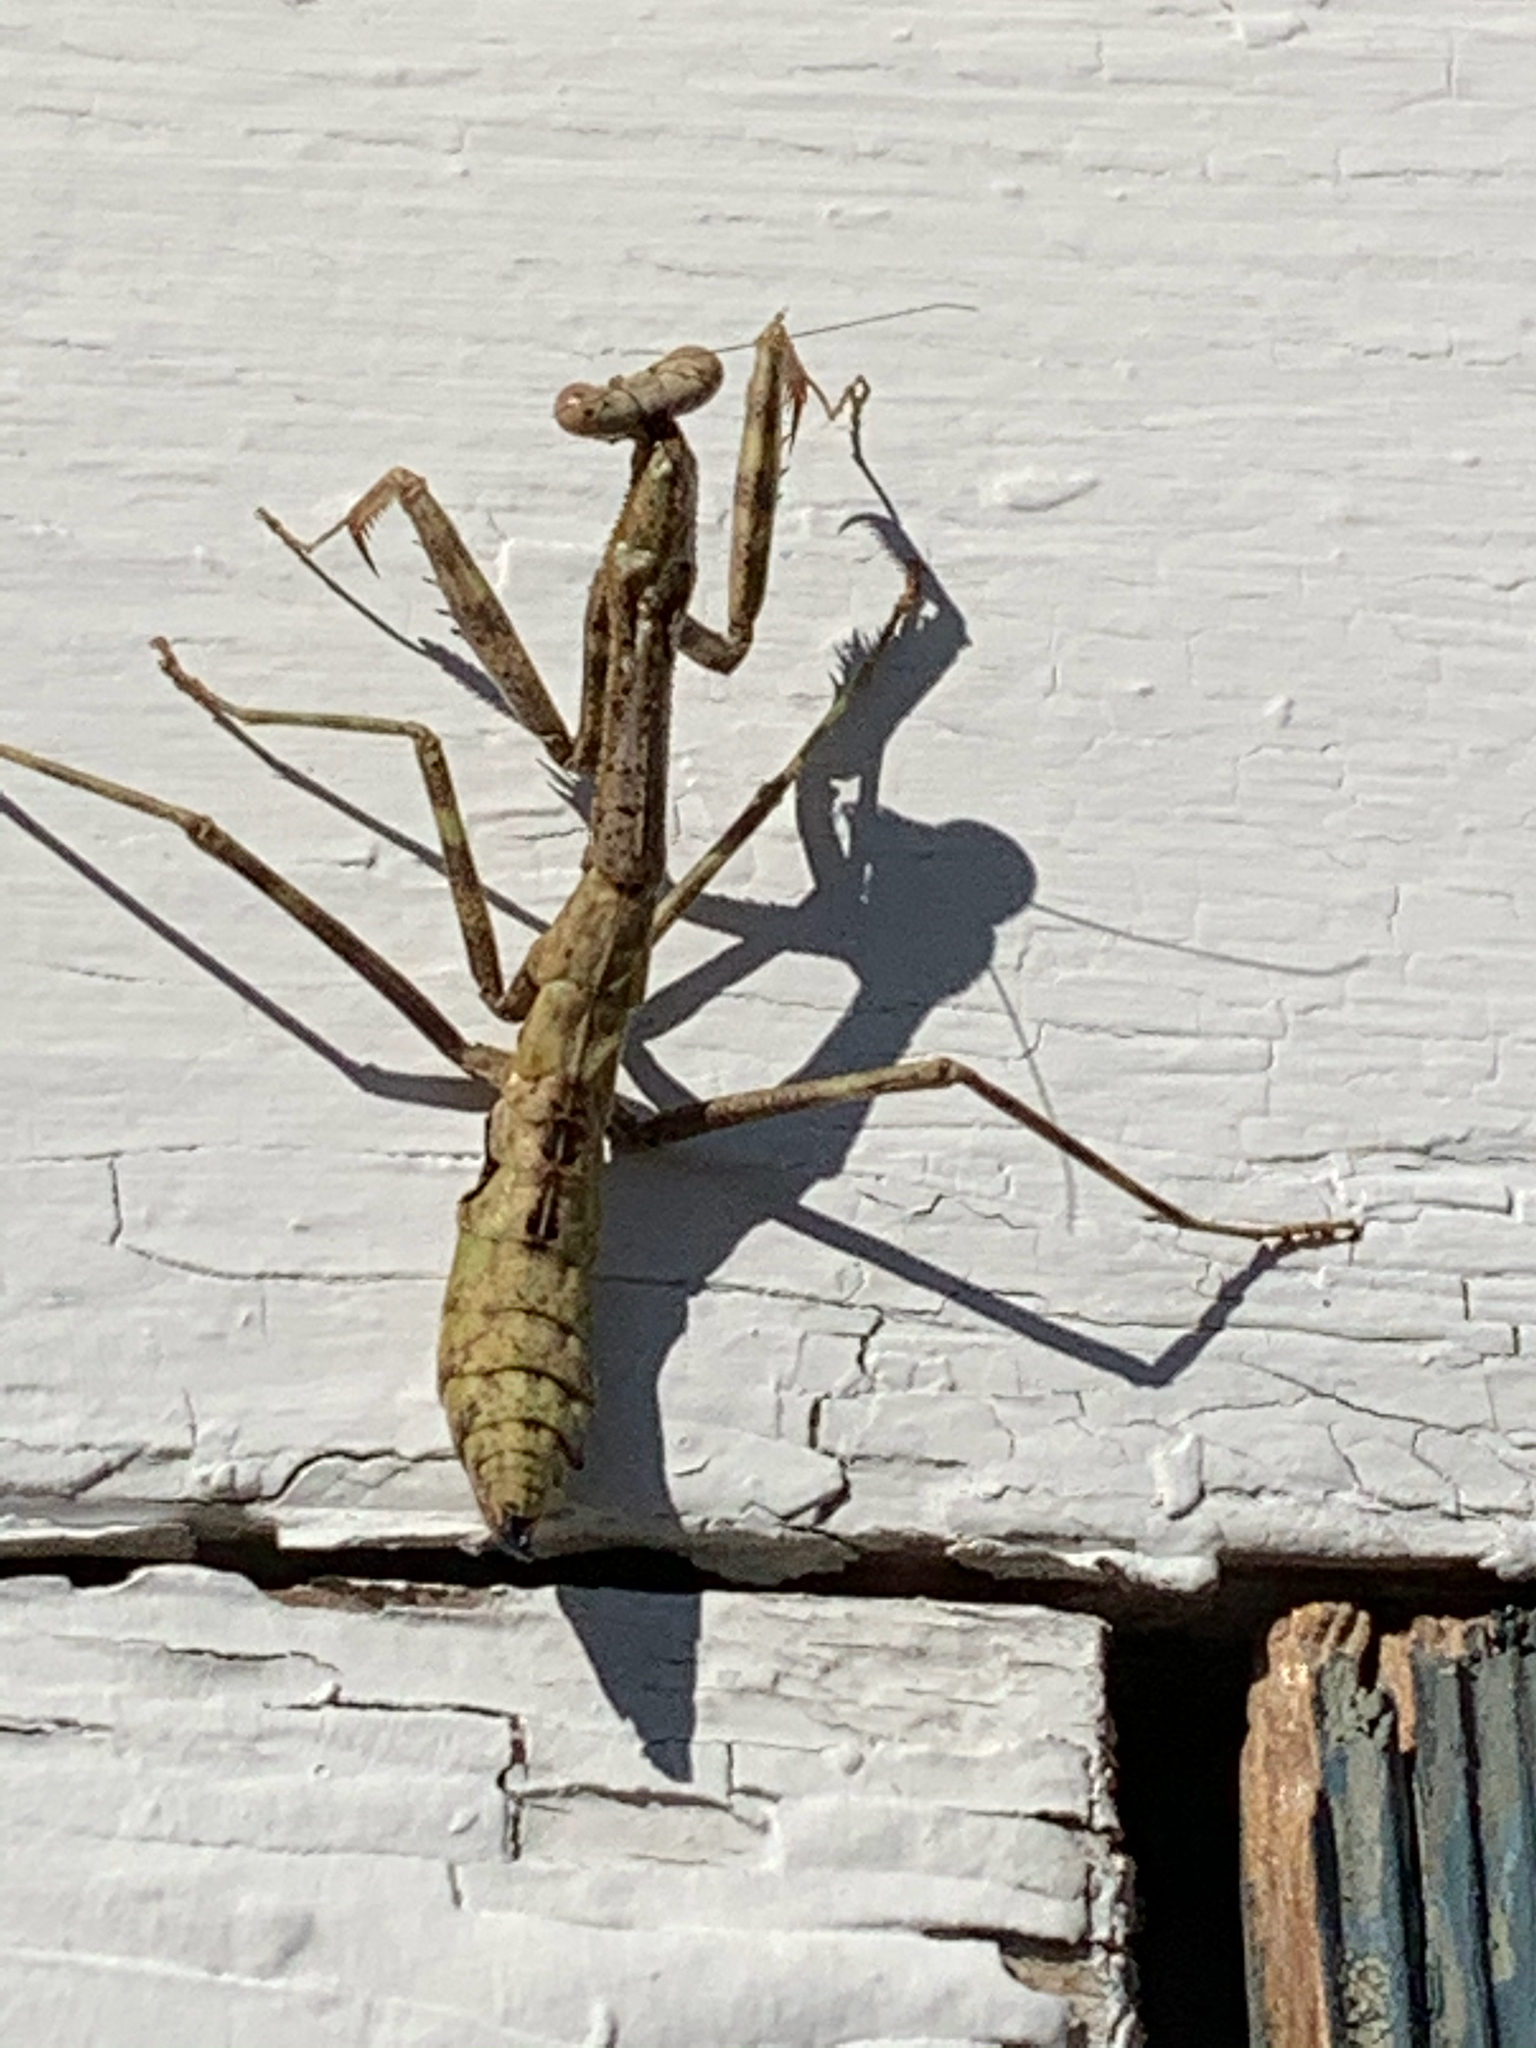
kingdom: Animalia
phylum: Arthropoda
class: Insecta
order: Mantodea
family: Mantidae
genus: Stagmomantis
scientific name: Stagmomantis carolina
